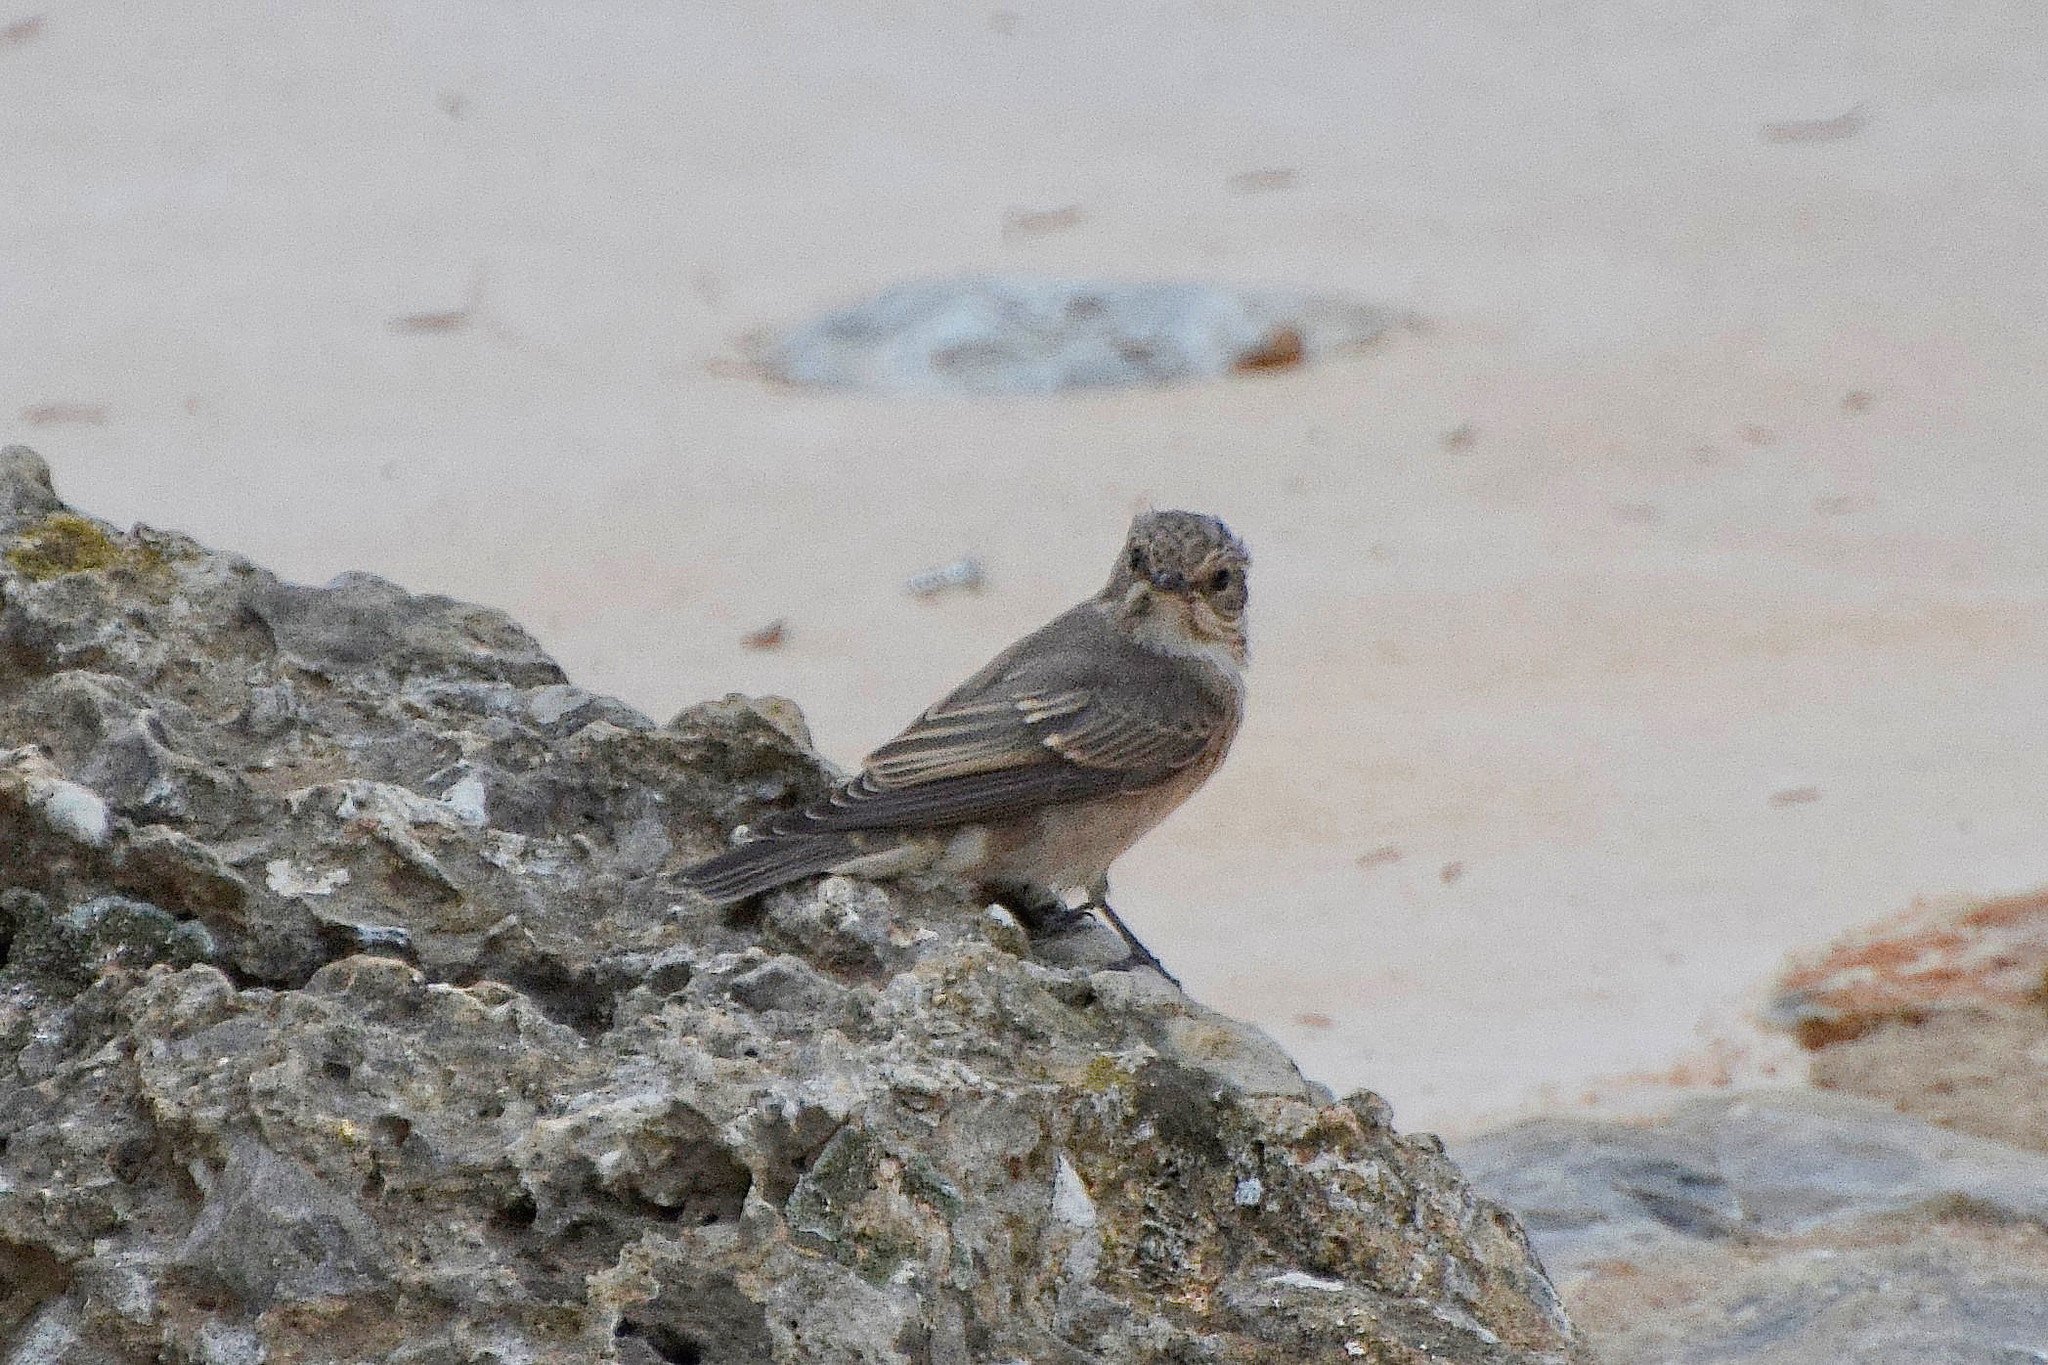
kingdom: Animalia
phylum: Chordata
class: Aves
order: Passeriformes
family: Muscicapidae
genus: Muscicapa
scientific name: Muscicapa striata
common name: Spotted flycatcher
